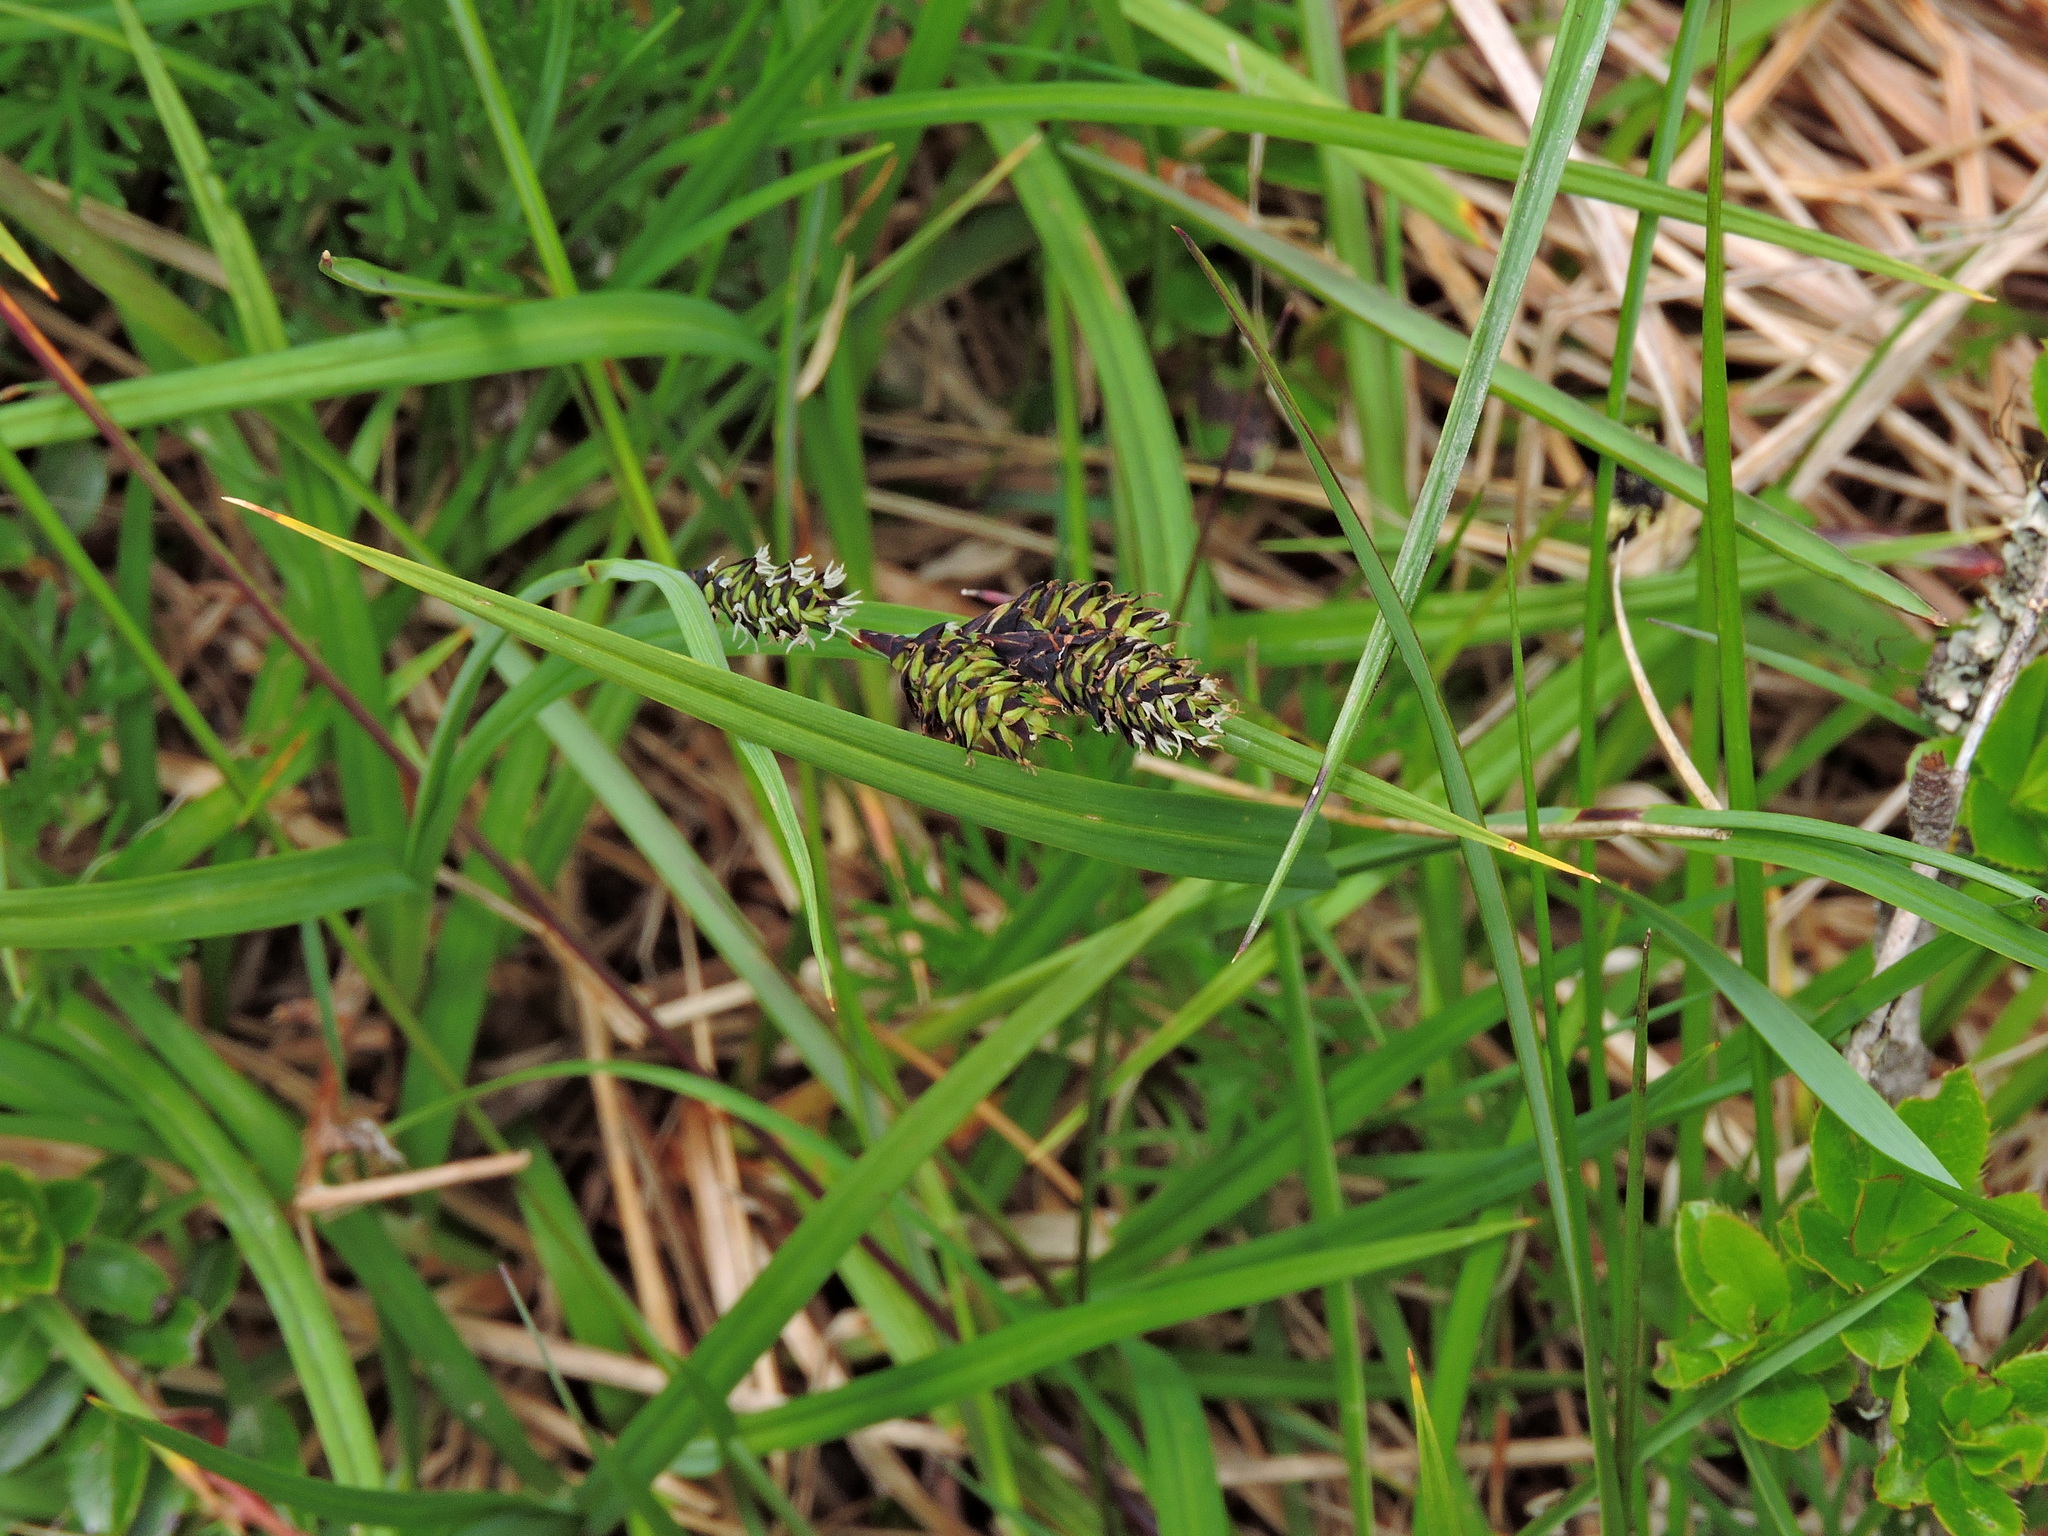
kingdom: Plantae
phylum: Tracheophyta
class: Liliopsida
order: Poales
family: Cyperaceae
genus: Carex
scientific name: Carex atrata
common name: Black alpine sedge
